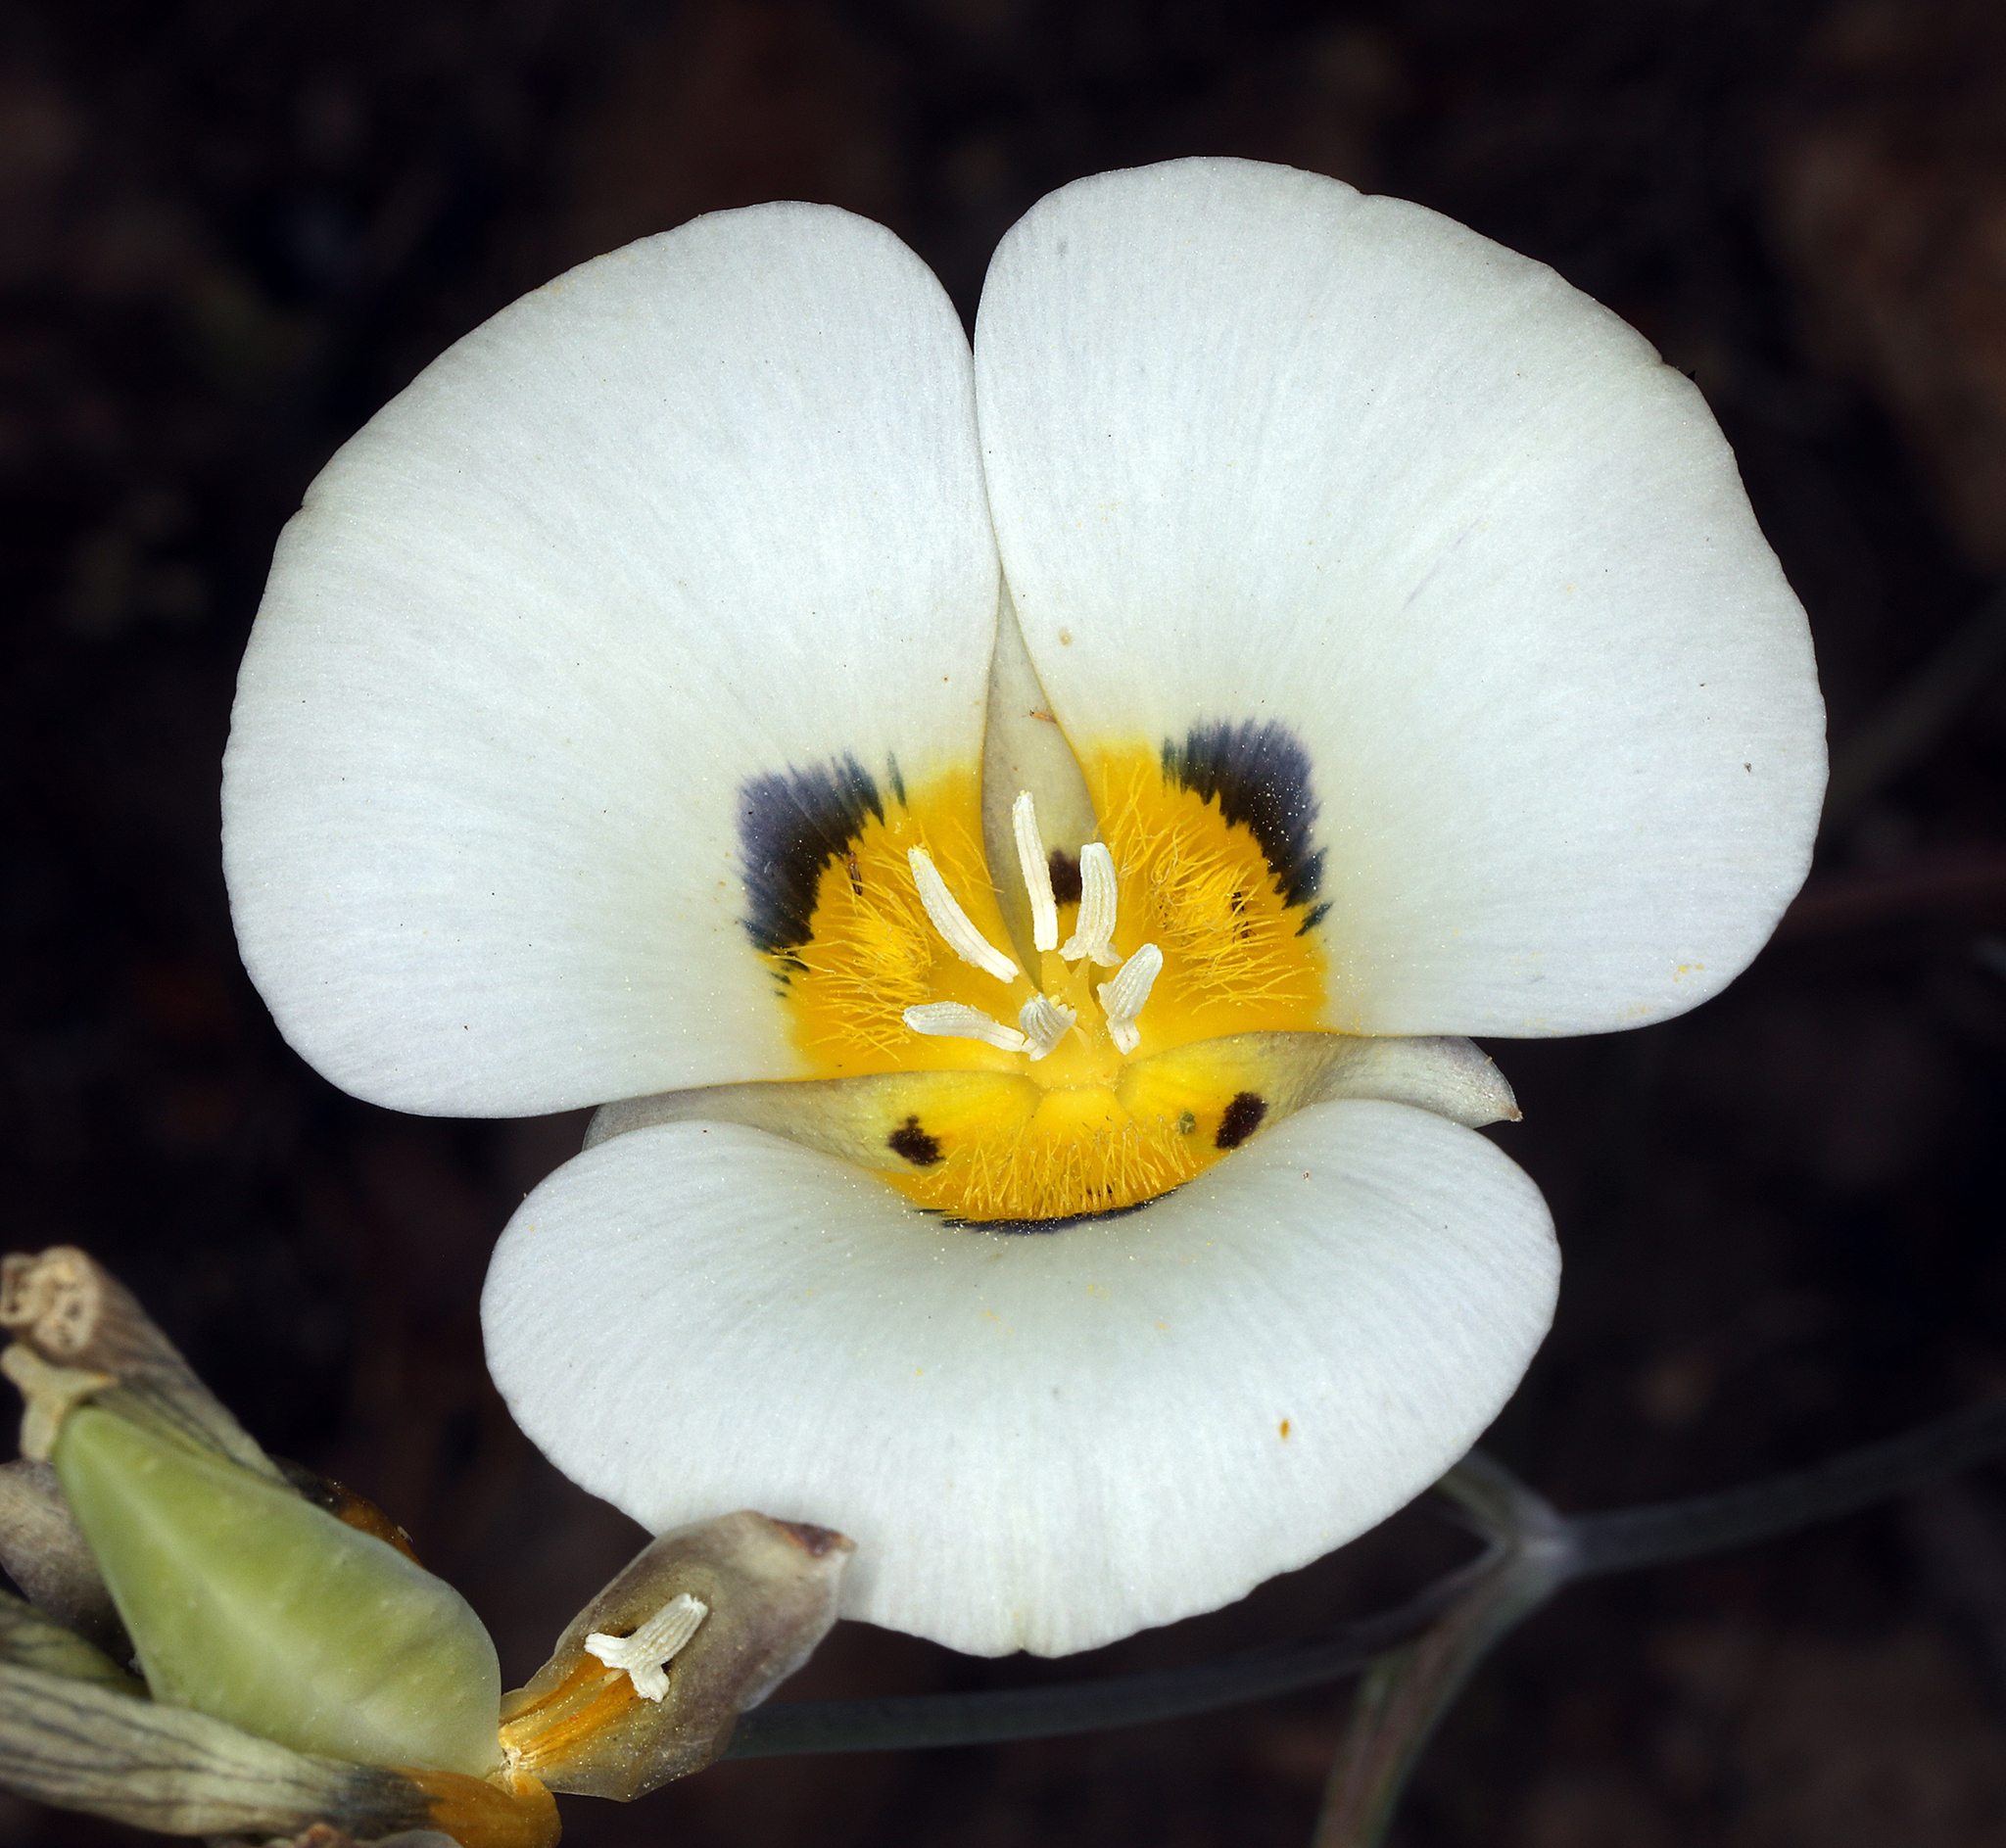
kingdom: Plantae
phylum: Tracheophyta
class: Liliopsida
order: Liliales
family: Liliaceae
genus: Calochortus
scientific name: Calochortus leichtlinii
